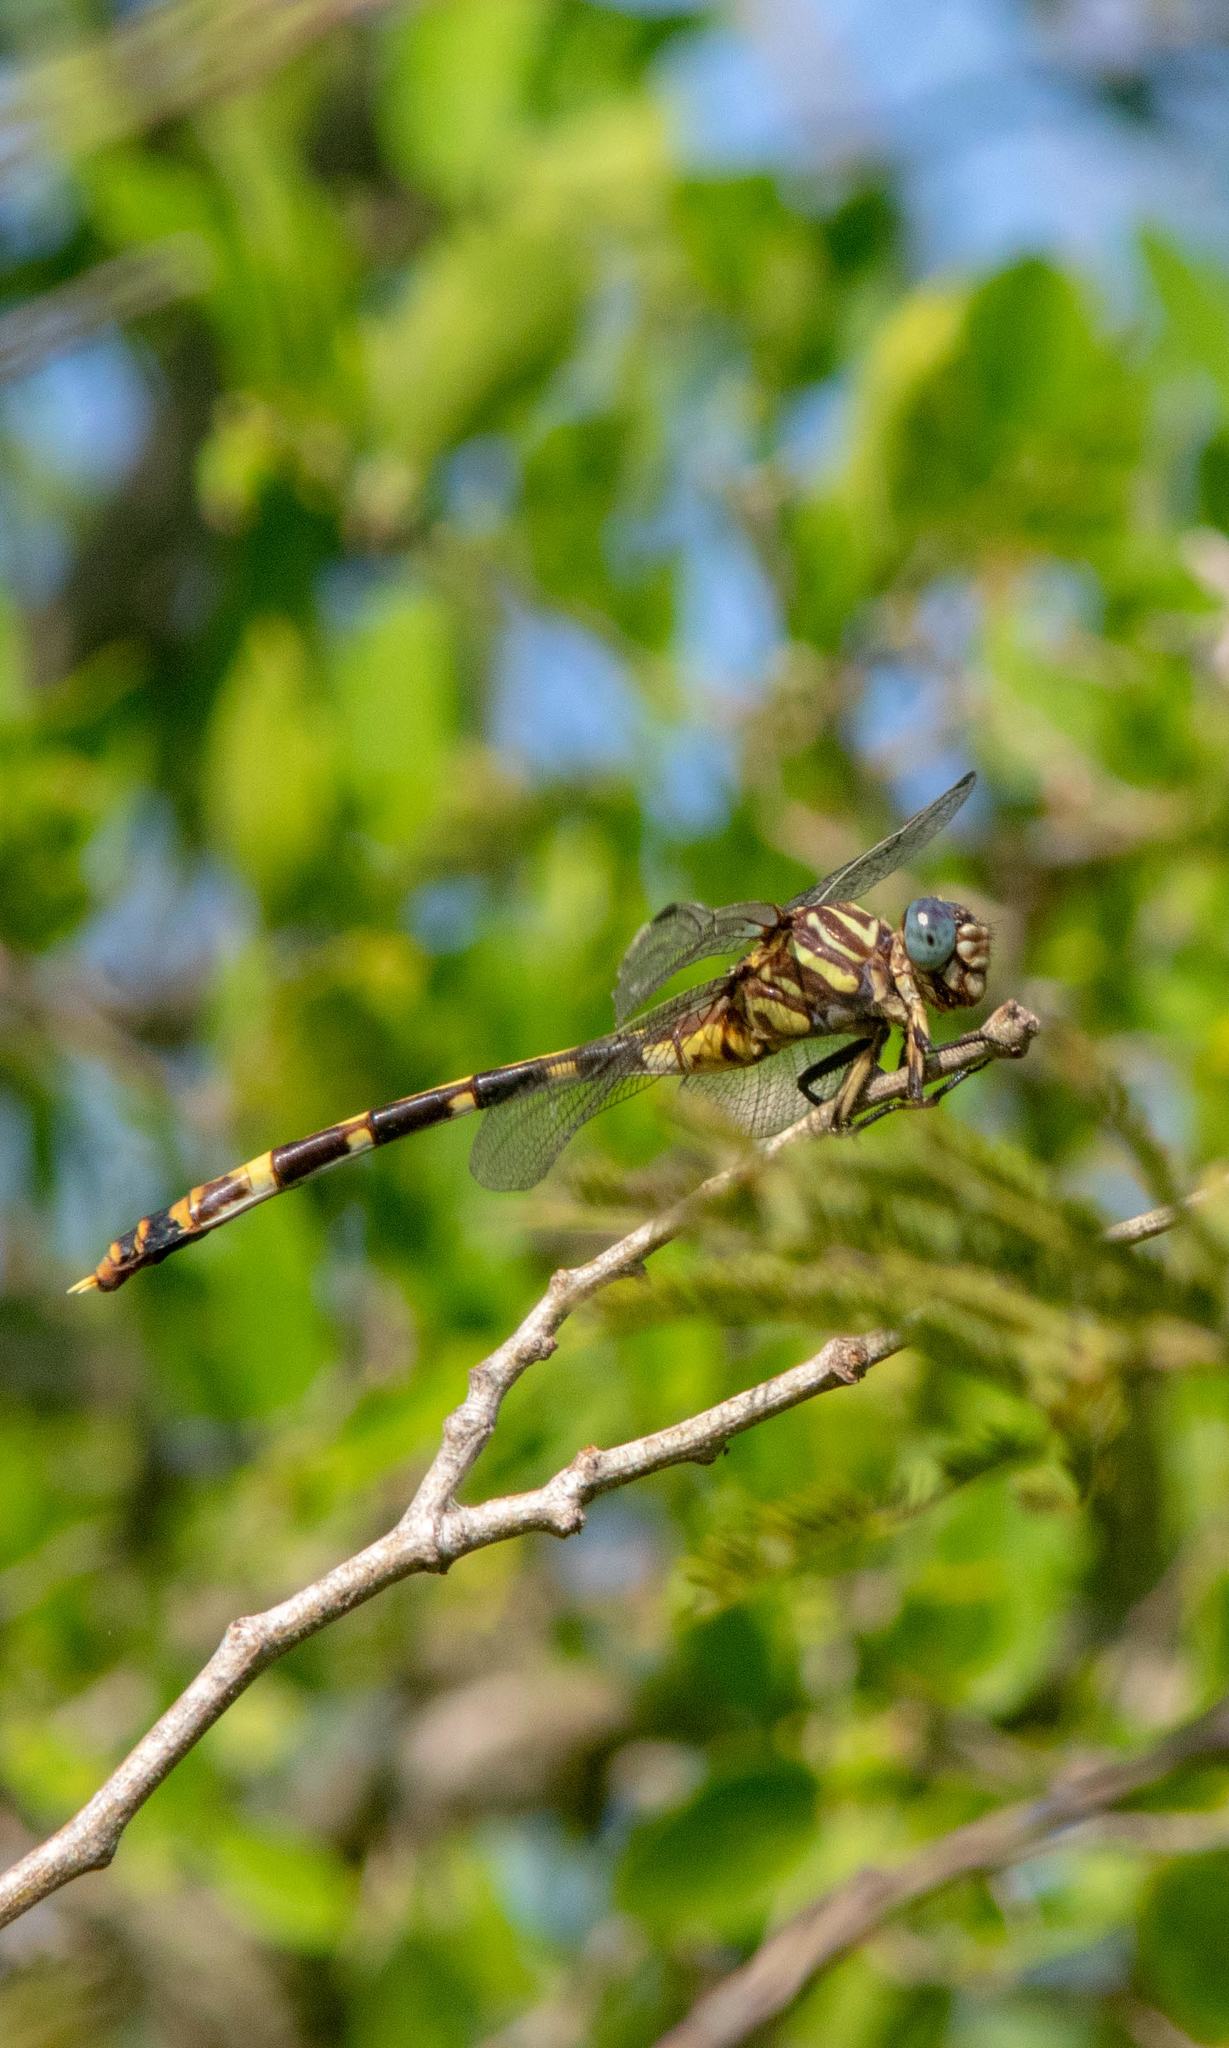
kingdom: Animalia
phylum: Arthropoda
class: Insecta
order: Odonata
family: Gomphidae
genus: Phyllogomphoides
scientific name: Phyllogomphoides albrighti
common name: Five-striped leaftail
